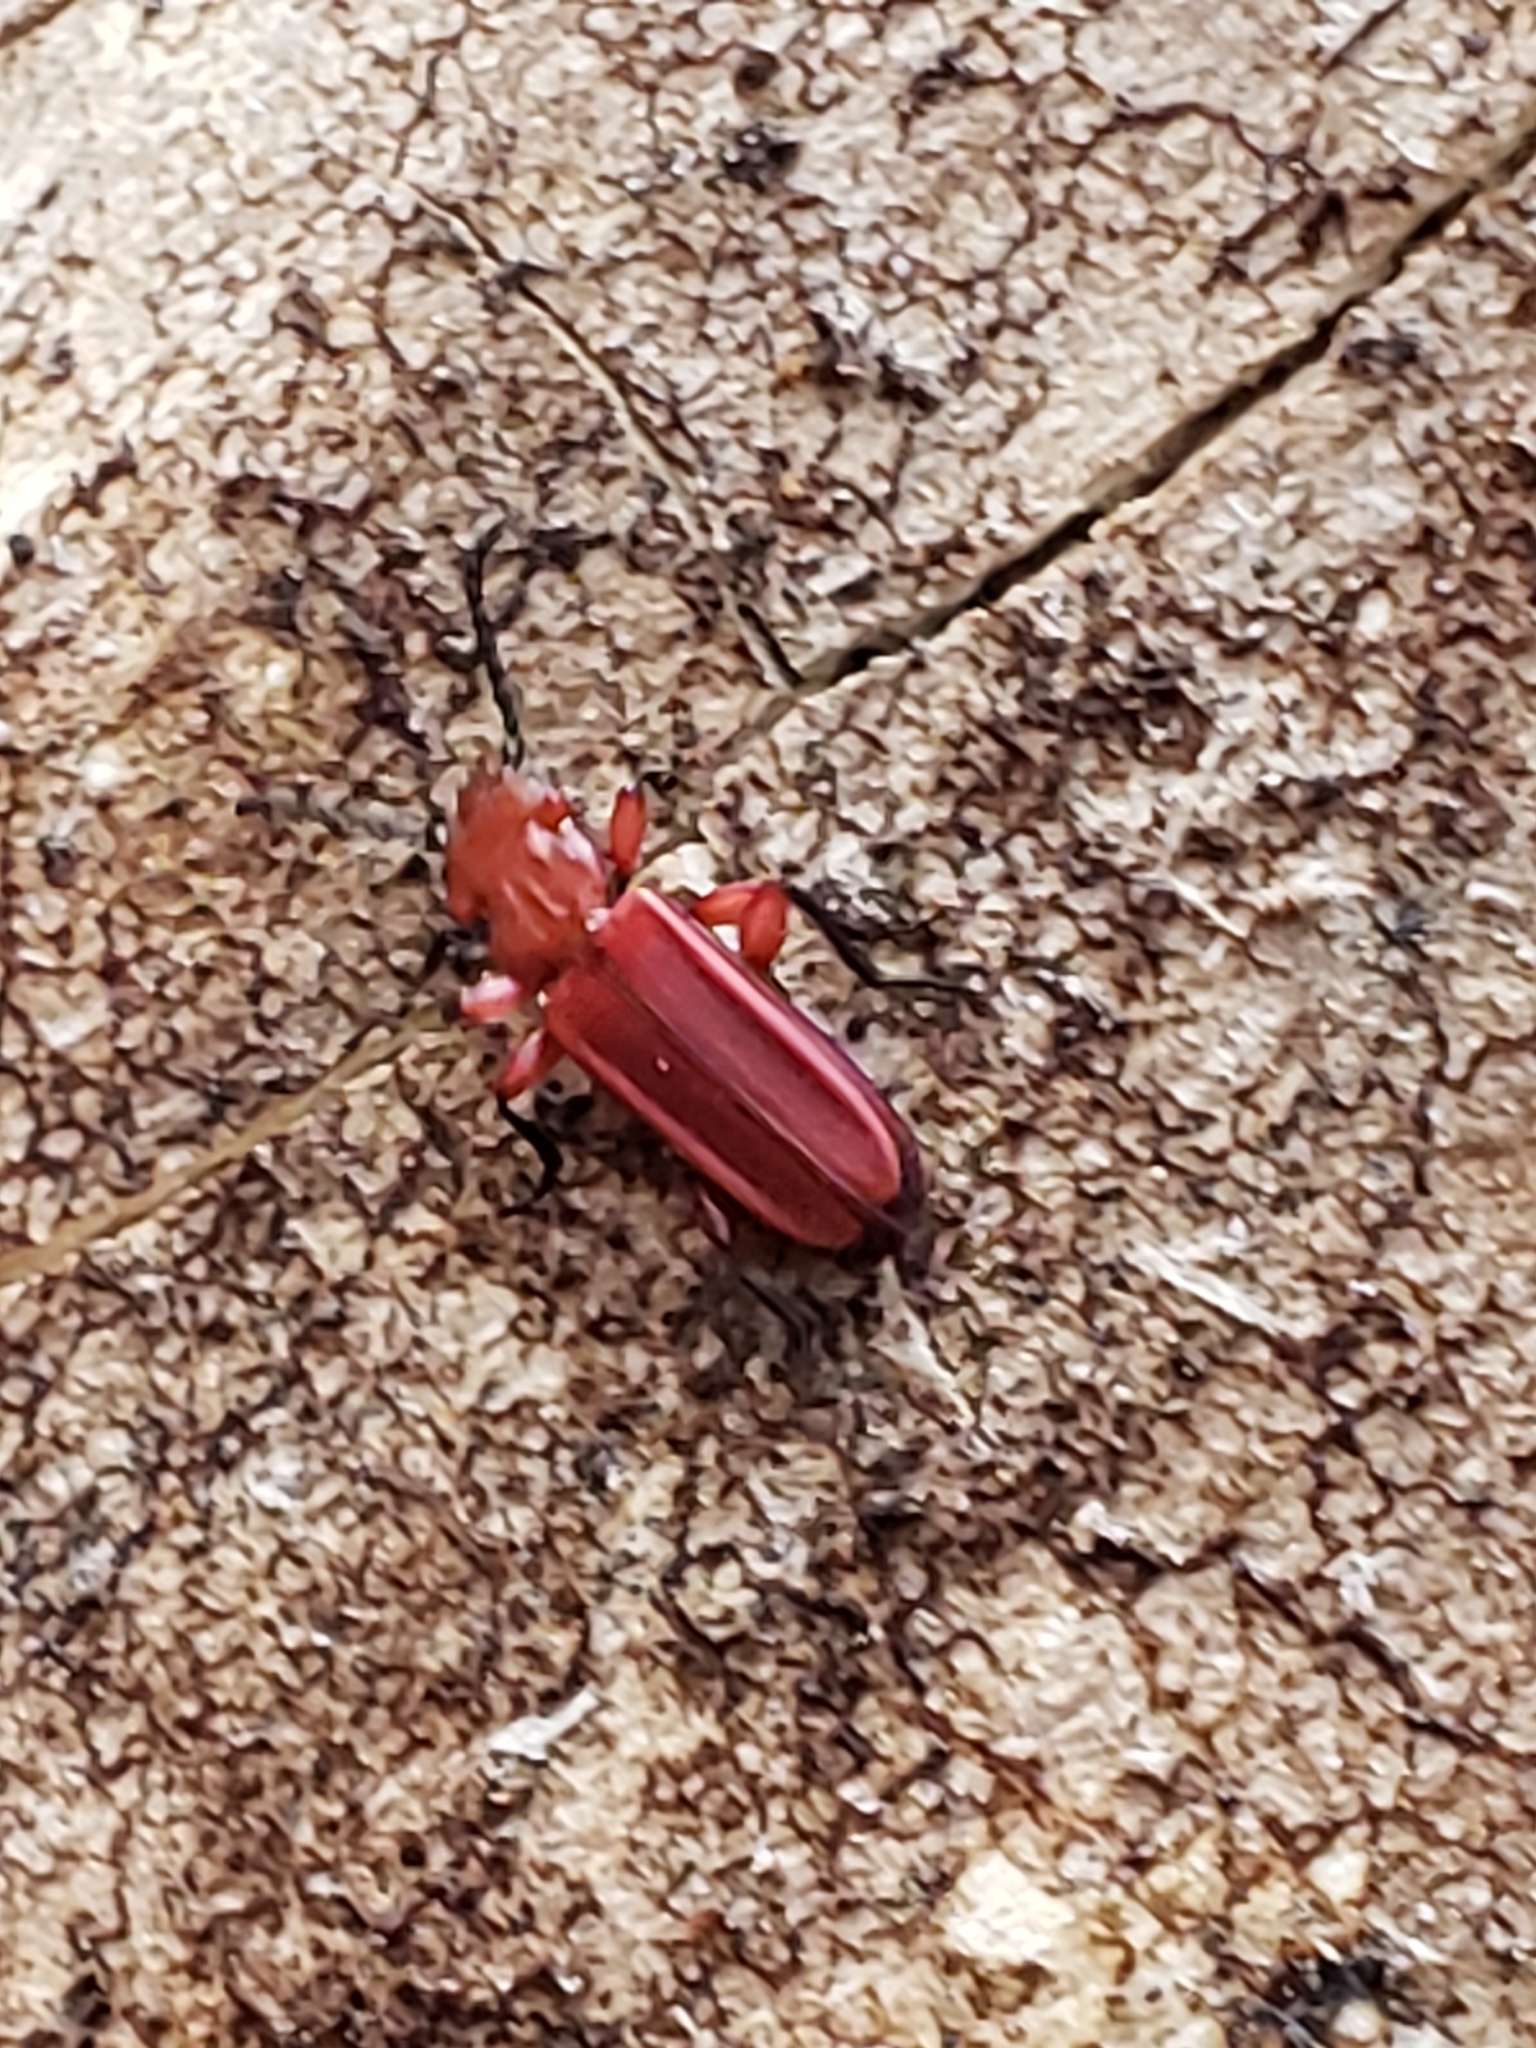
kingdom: Animalia
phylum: Arthropoda
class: Insecta
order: Coleoptera
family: Cucujidae
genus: Cucujus
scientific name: Cucujus clavipes
